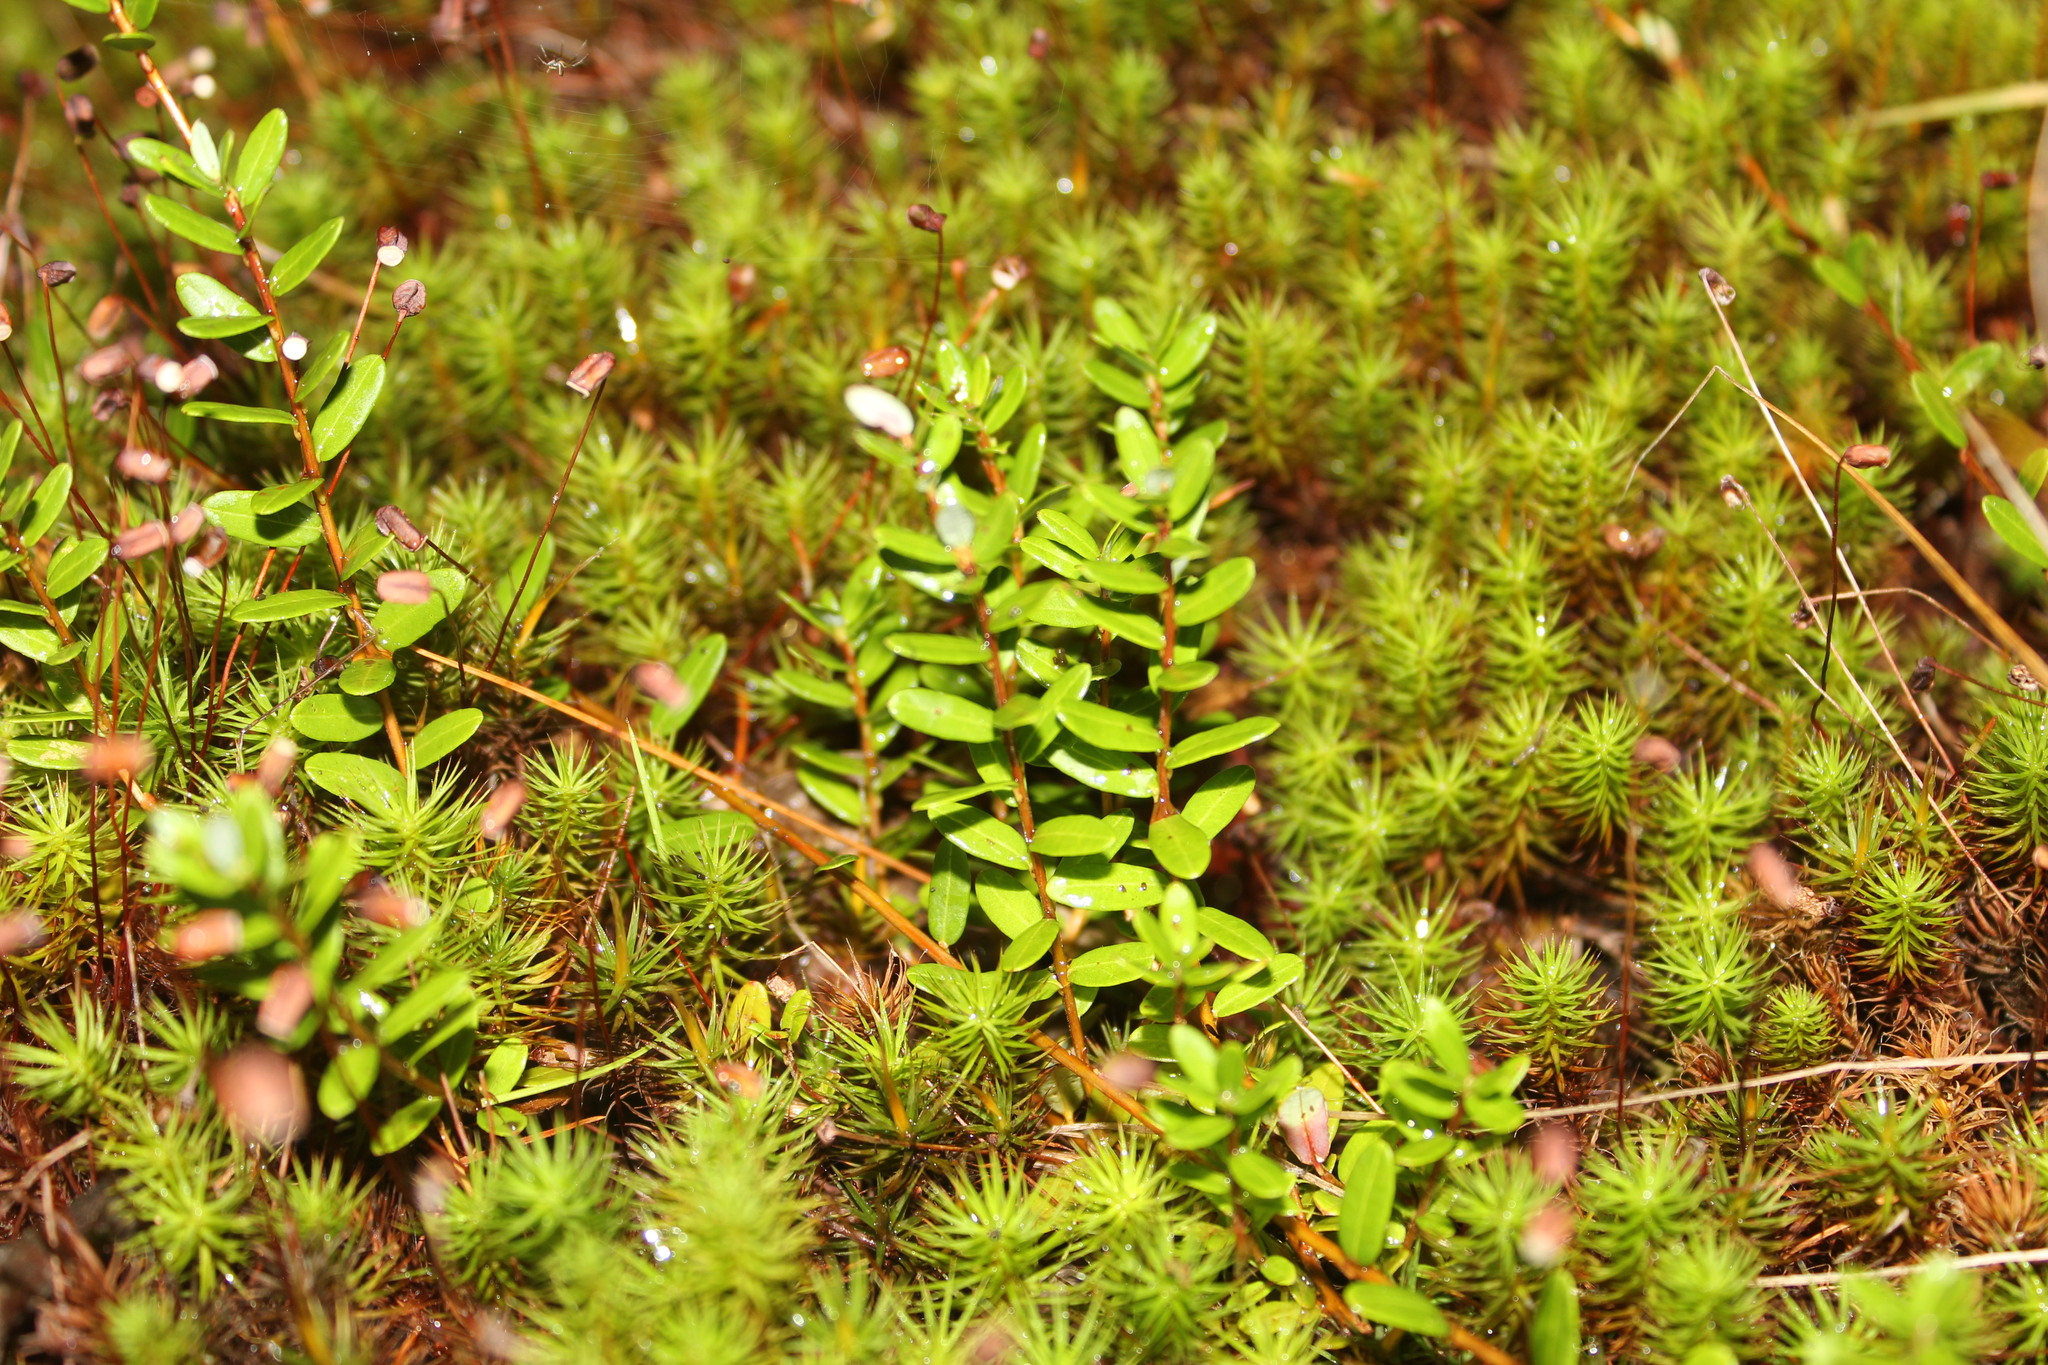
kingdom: Plantae
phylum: Tracheophyta
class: Magnoliopsida
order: Ericales
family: Ericaceae
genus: Vaccinium
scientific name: Vaccinium macrocarpon
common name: American cranberry
